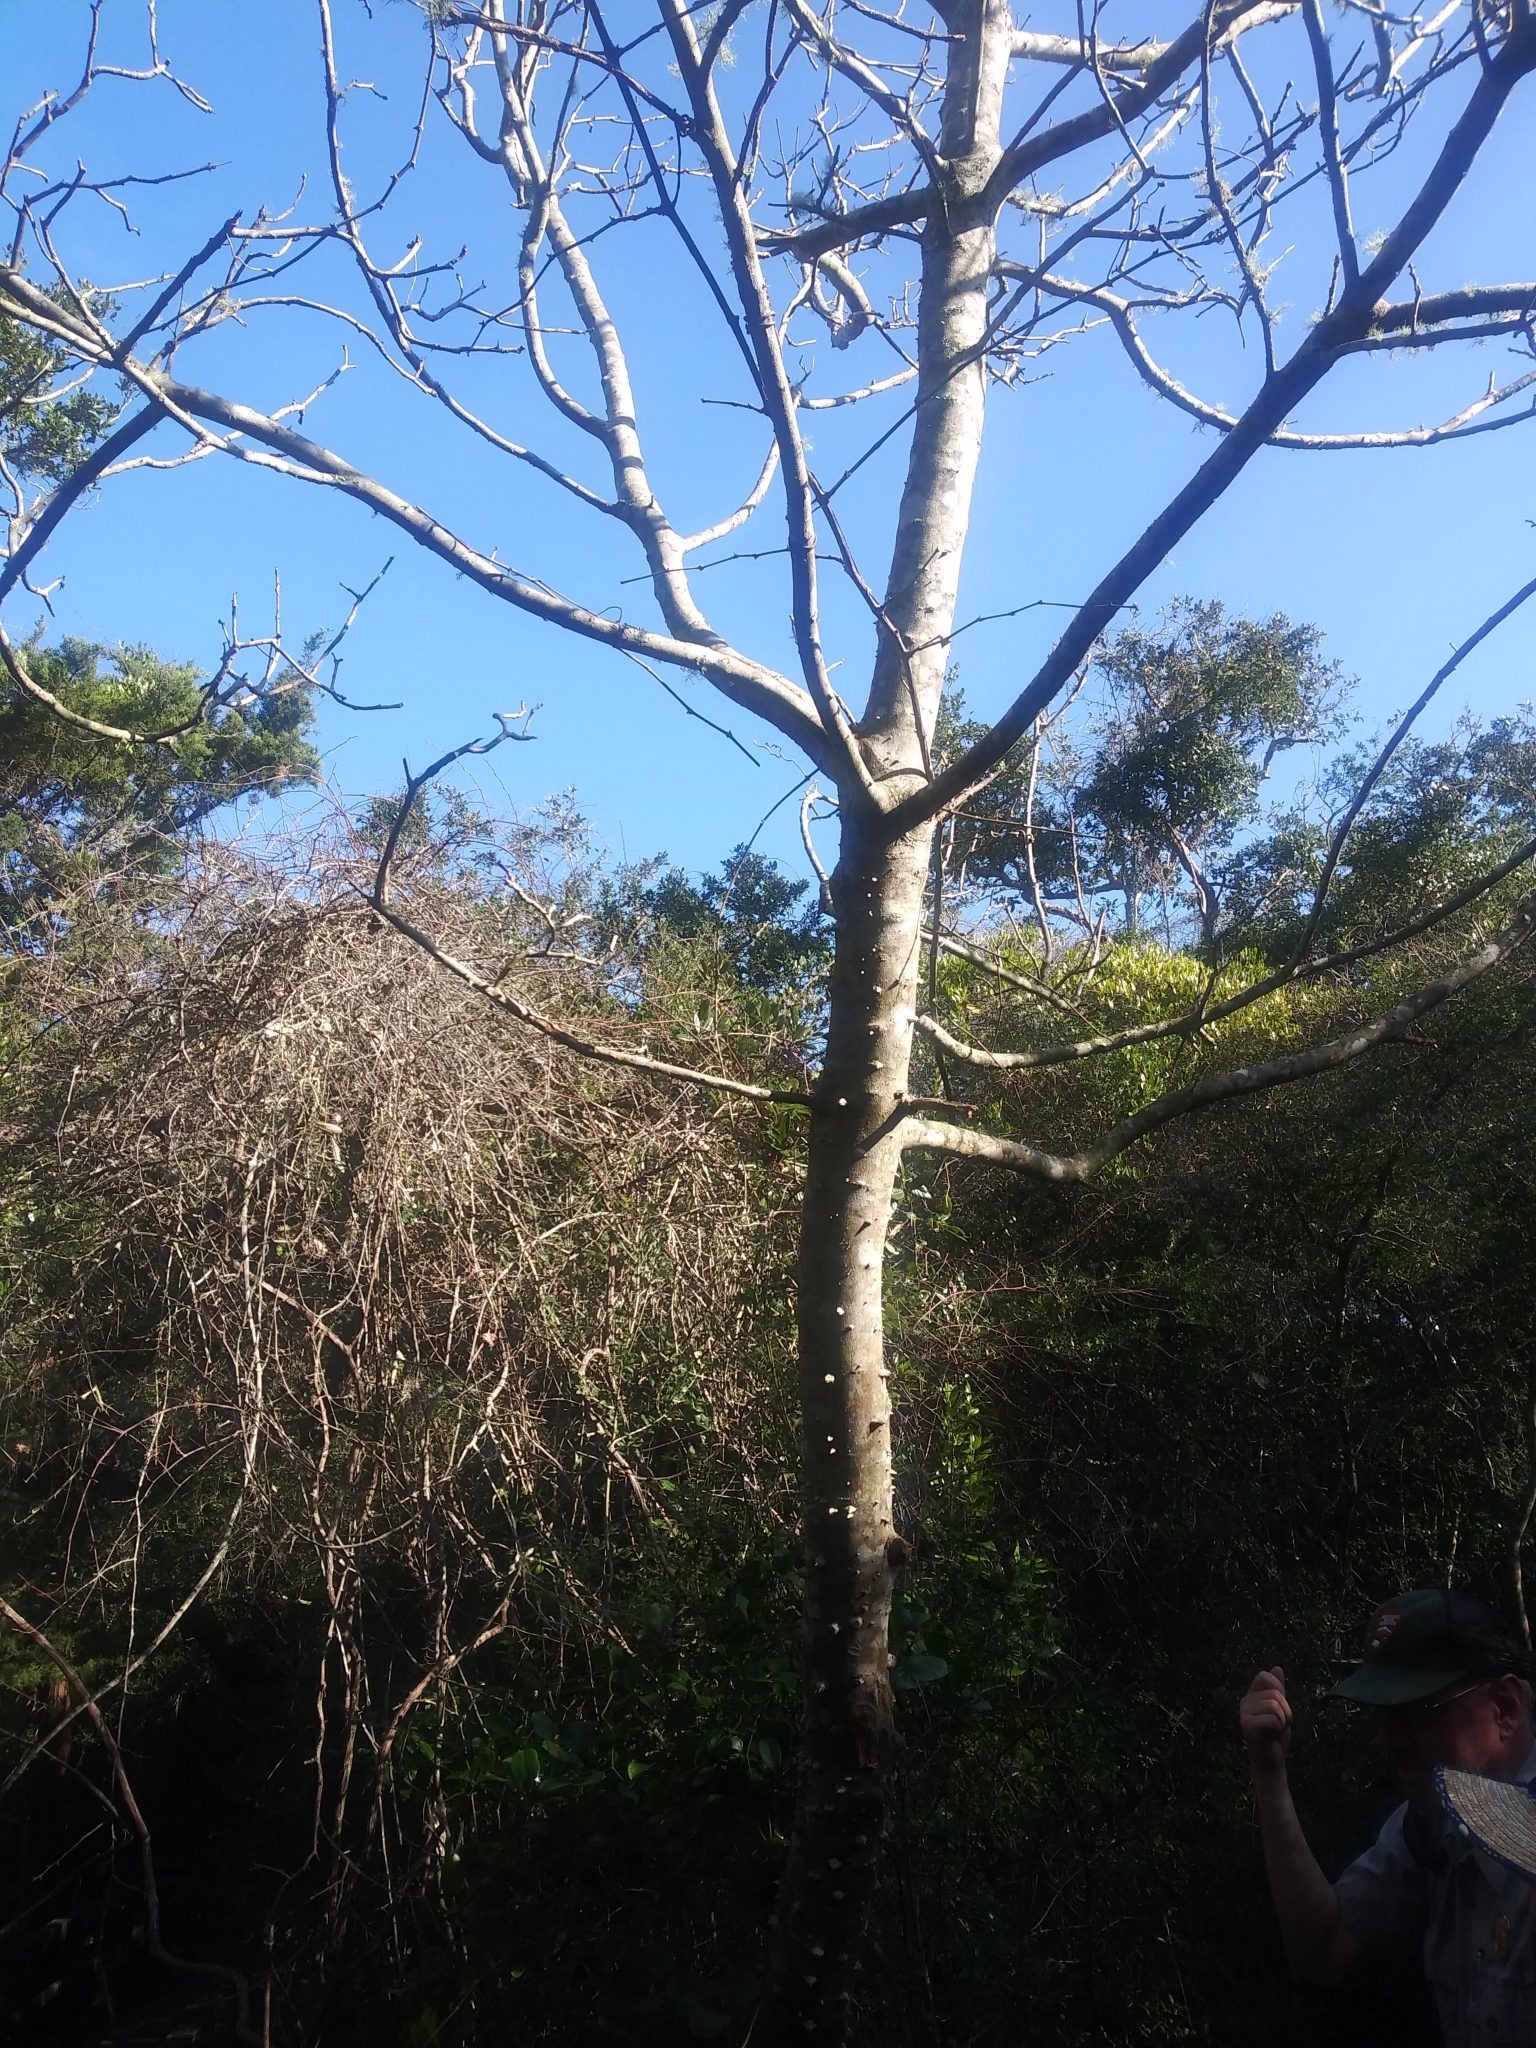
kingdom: Plantae
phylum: Tracheophyta
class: Magnoliopsida
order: Sapindales
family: Rutaceae
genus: Zanthoxylum
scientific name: Zanthoxylum clava-herculis
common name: Hercules'-club
